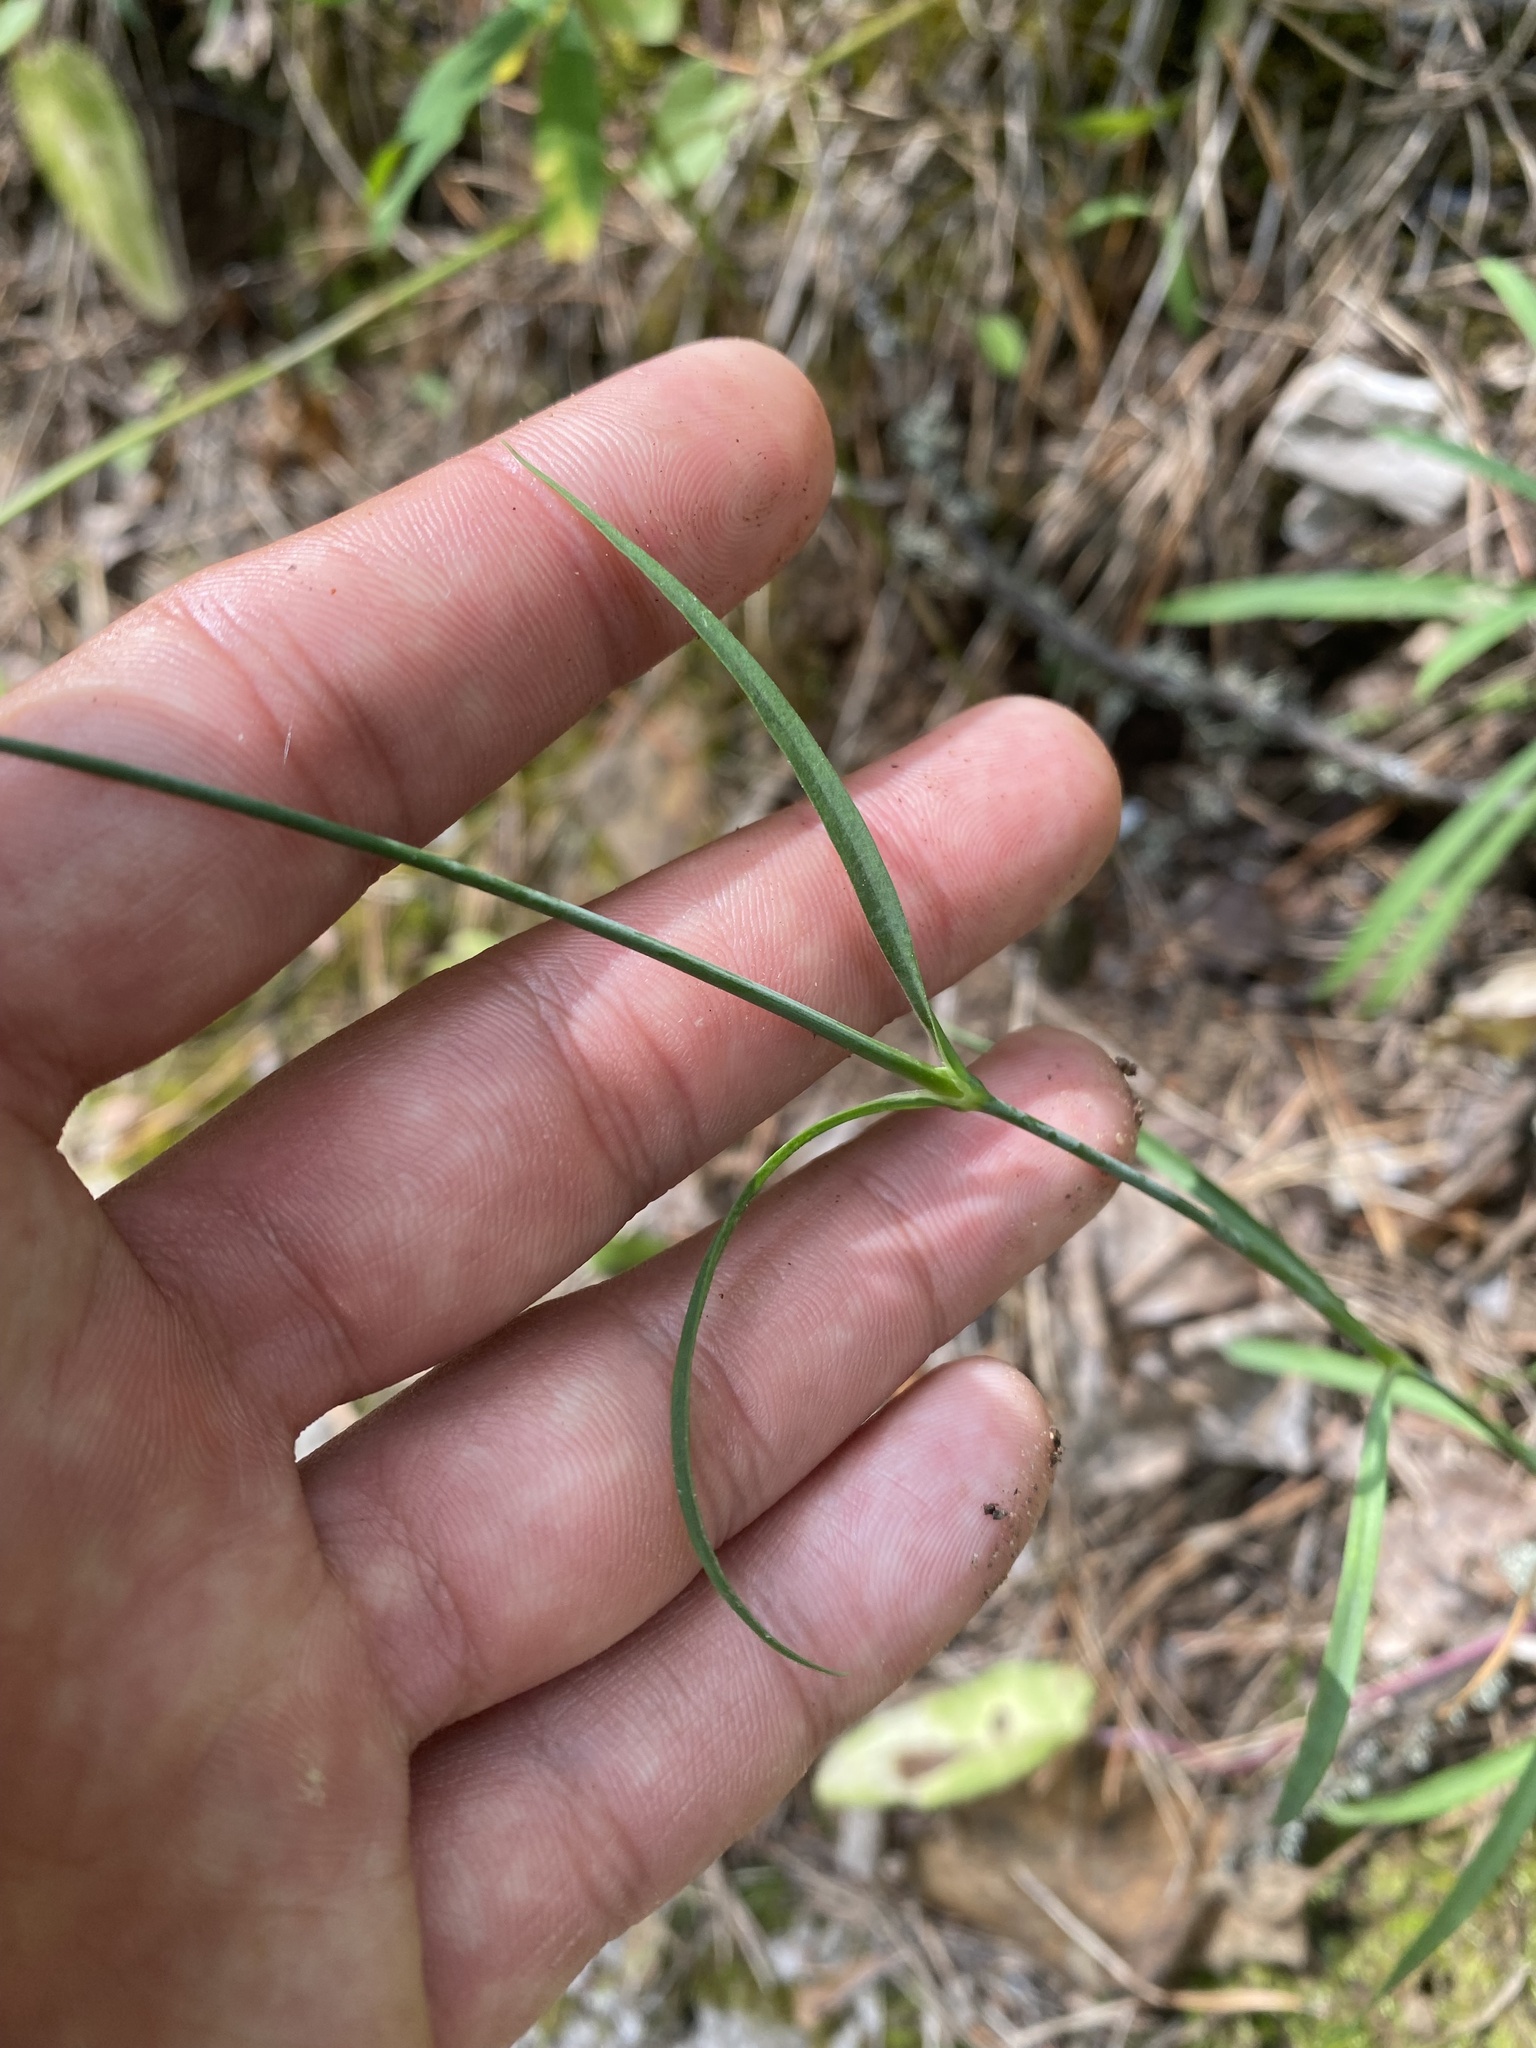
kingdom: Plantae
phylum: Tracheophyta
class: Magnoliopsida
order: Caryophyllales
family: Caryophyllaceae
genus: Dianthus
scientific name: Dianthus superbus
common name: Fringed pink
